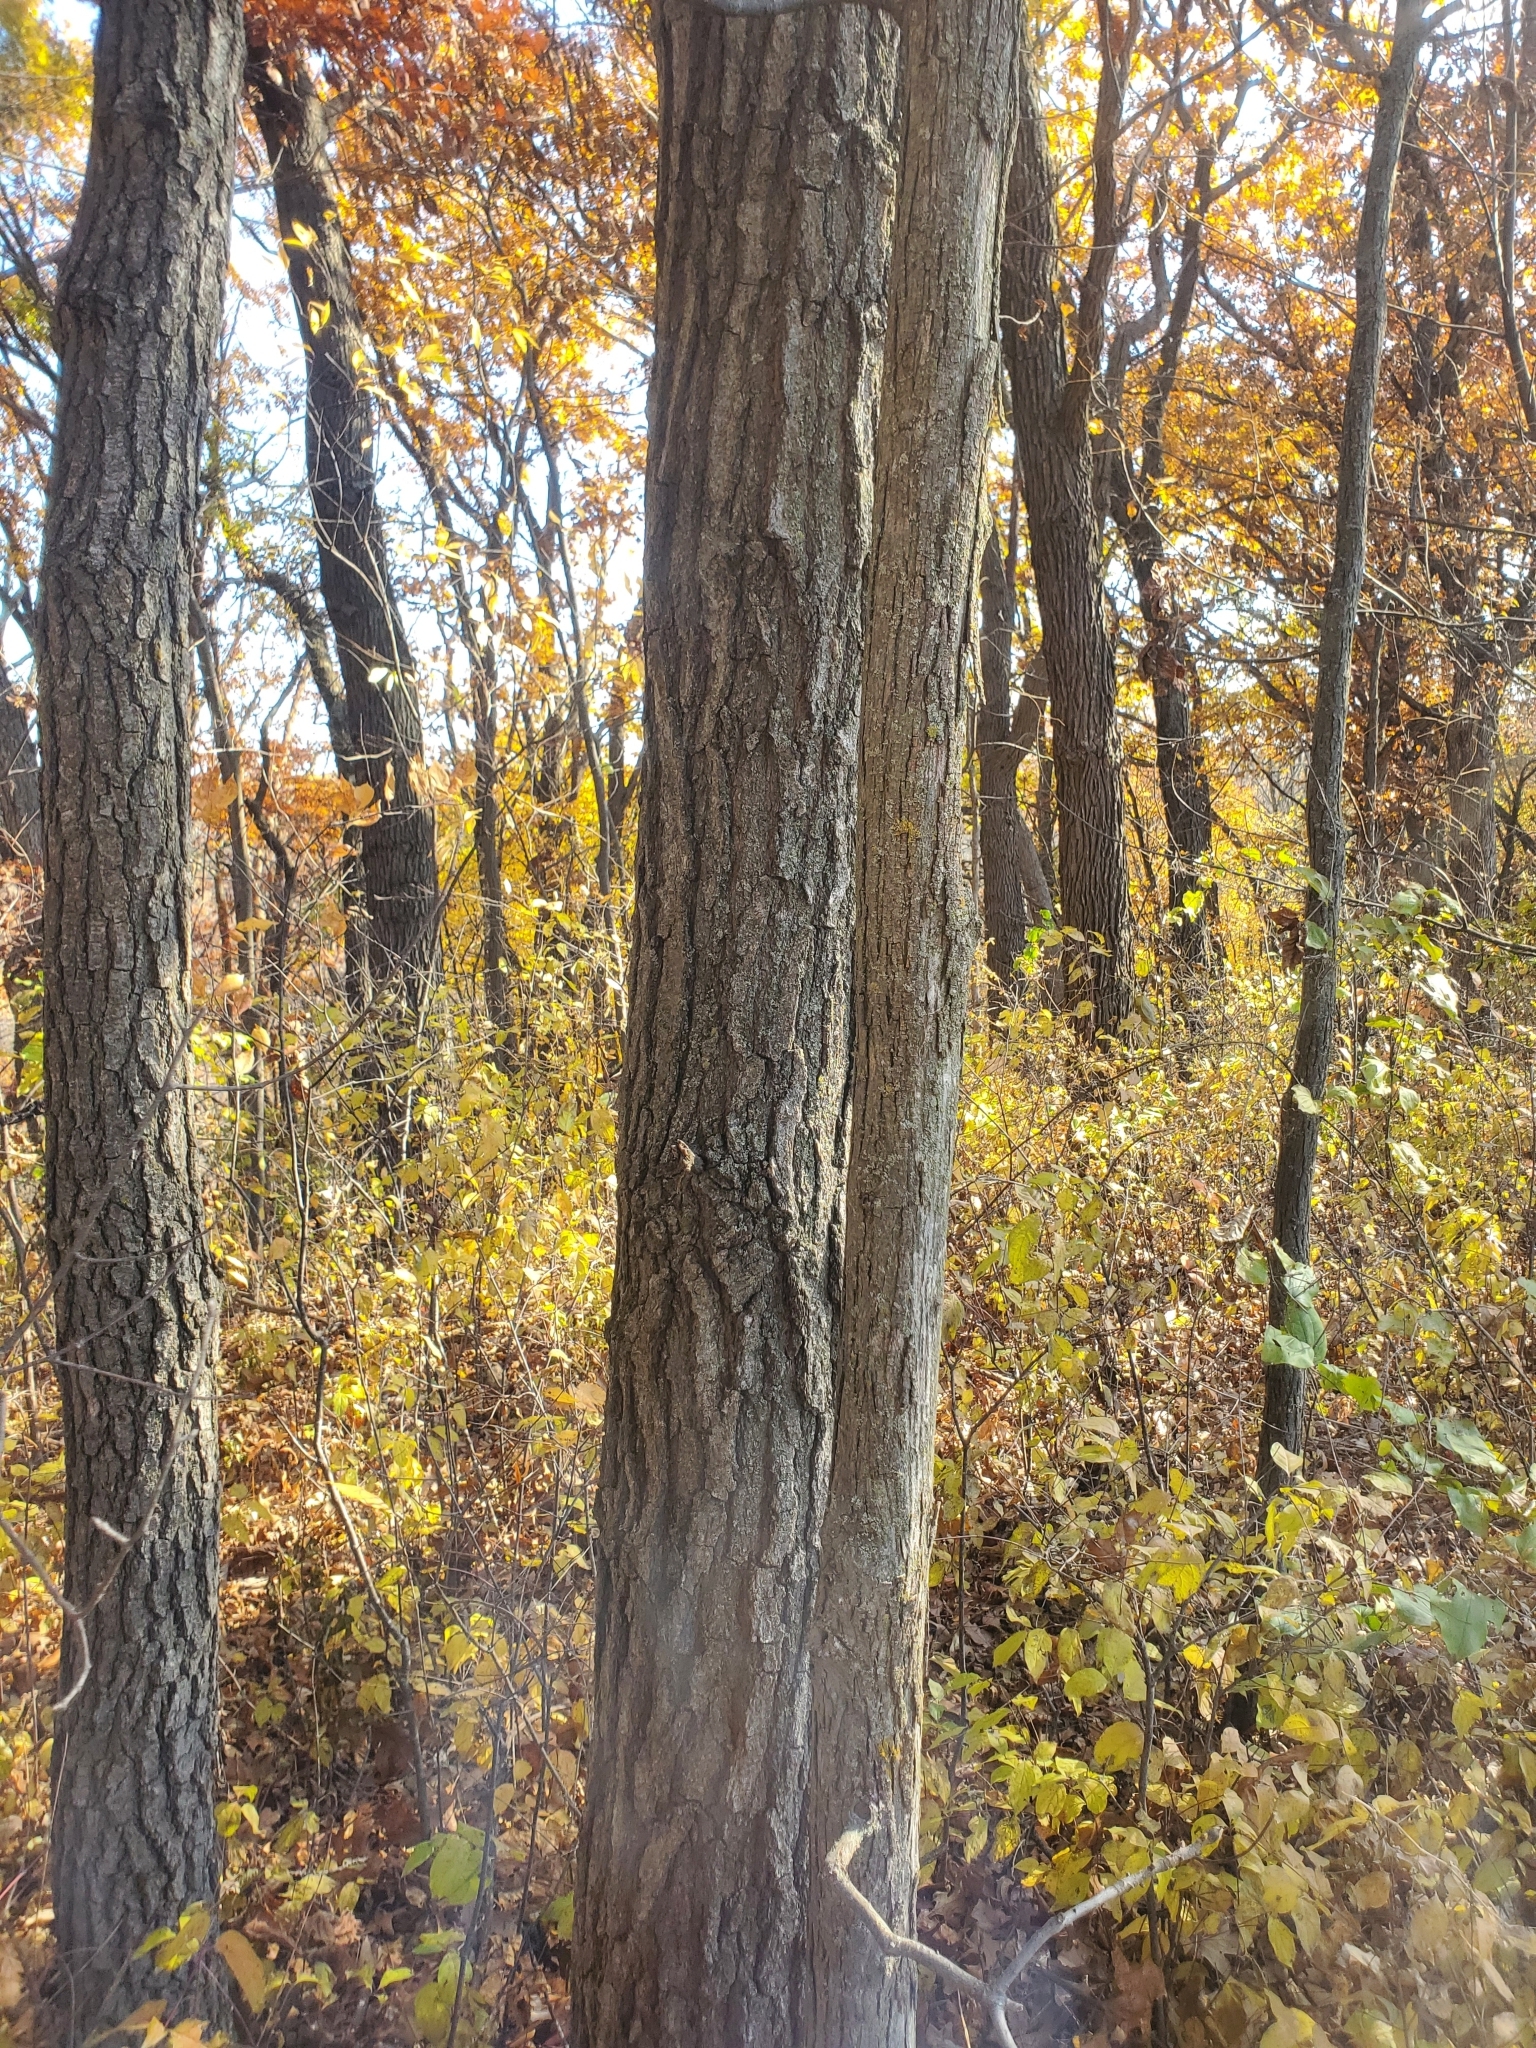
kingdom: Plantae
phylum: Tracheophyta
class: Magnoliopsida
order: Fagales
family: Juglandaceae
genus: Carya
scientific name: Carya ovata
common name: Shagbark hickory
